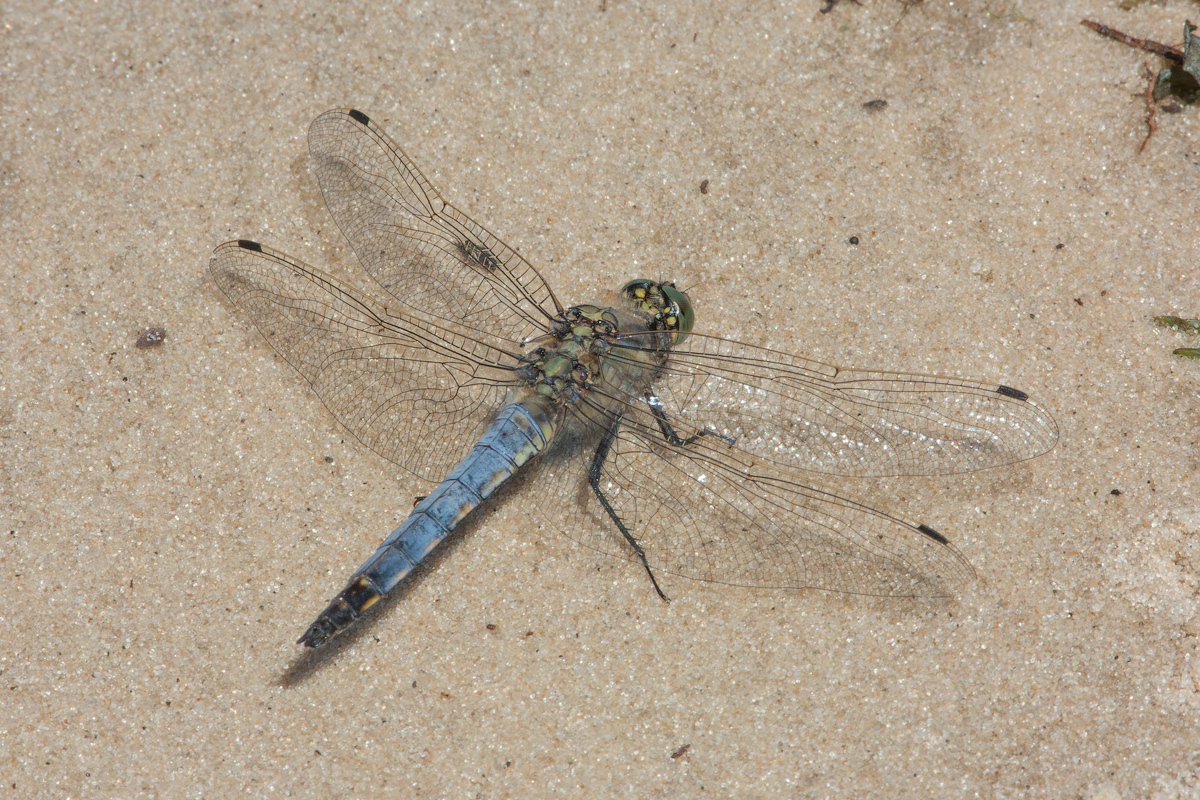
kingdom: Animalia
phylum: Arthropoda
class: Insecta
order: Odonata
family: Libellulidae
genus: Orthetrum
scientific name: Orthetrum cancellatum
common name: Black-tailed skimmer
